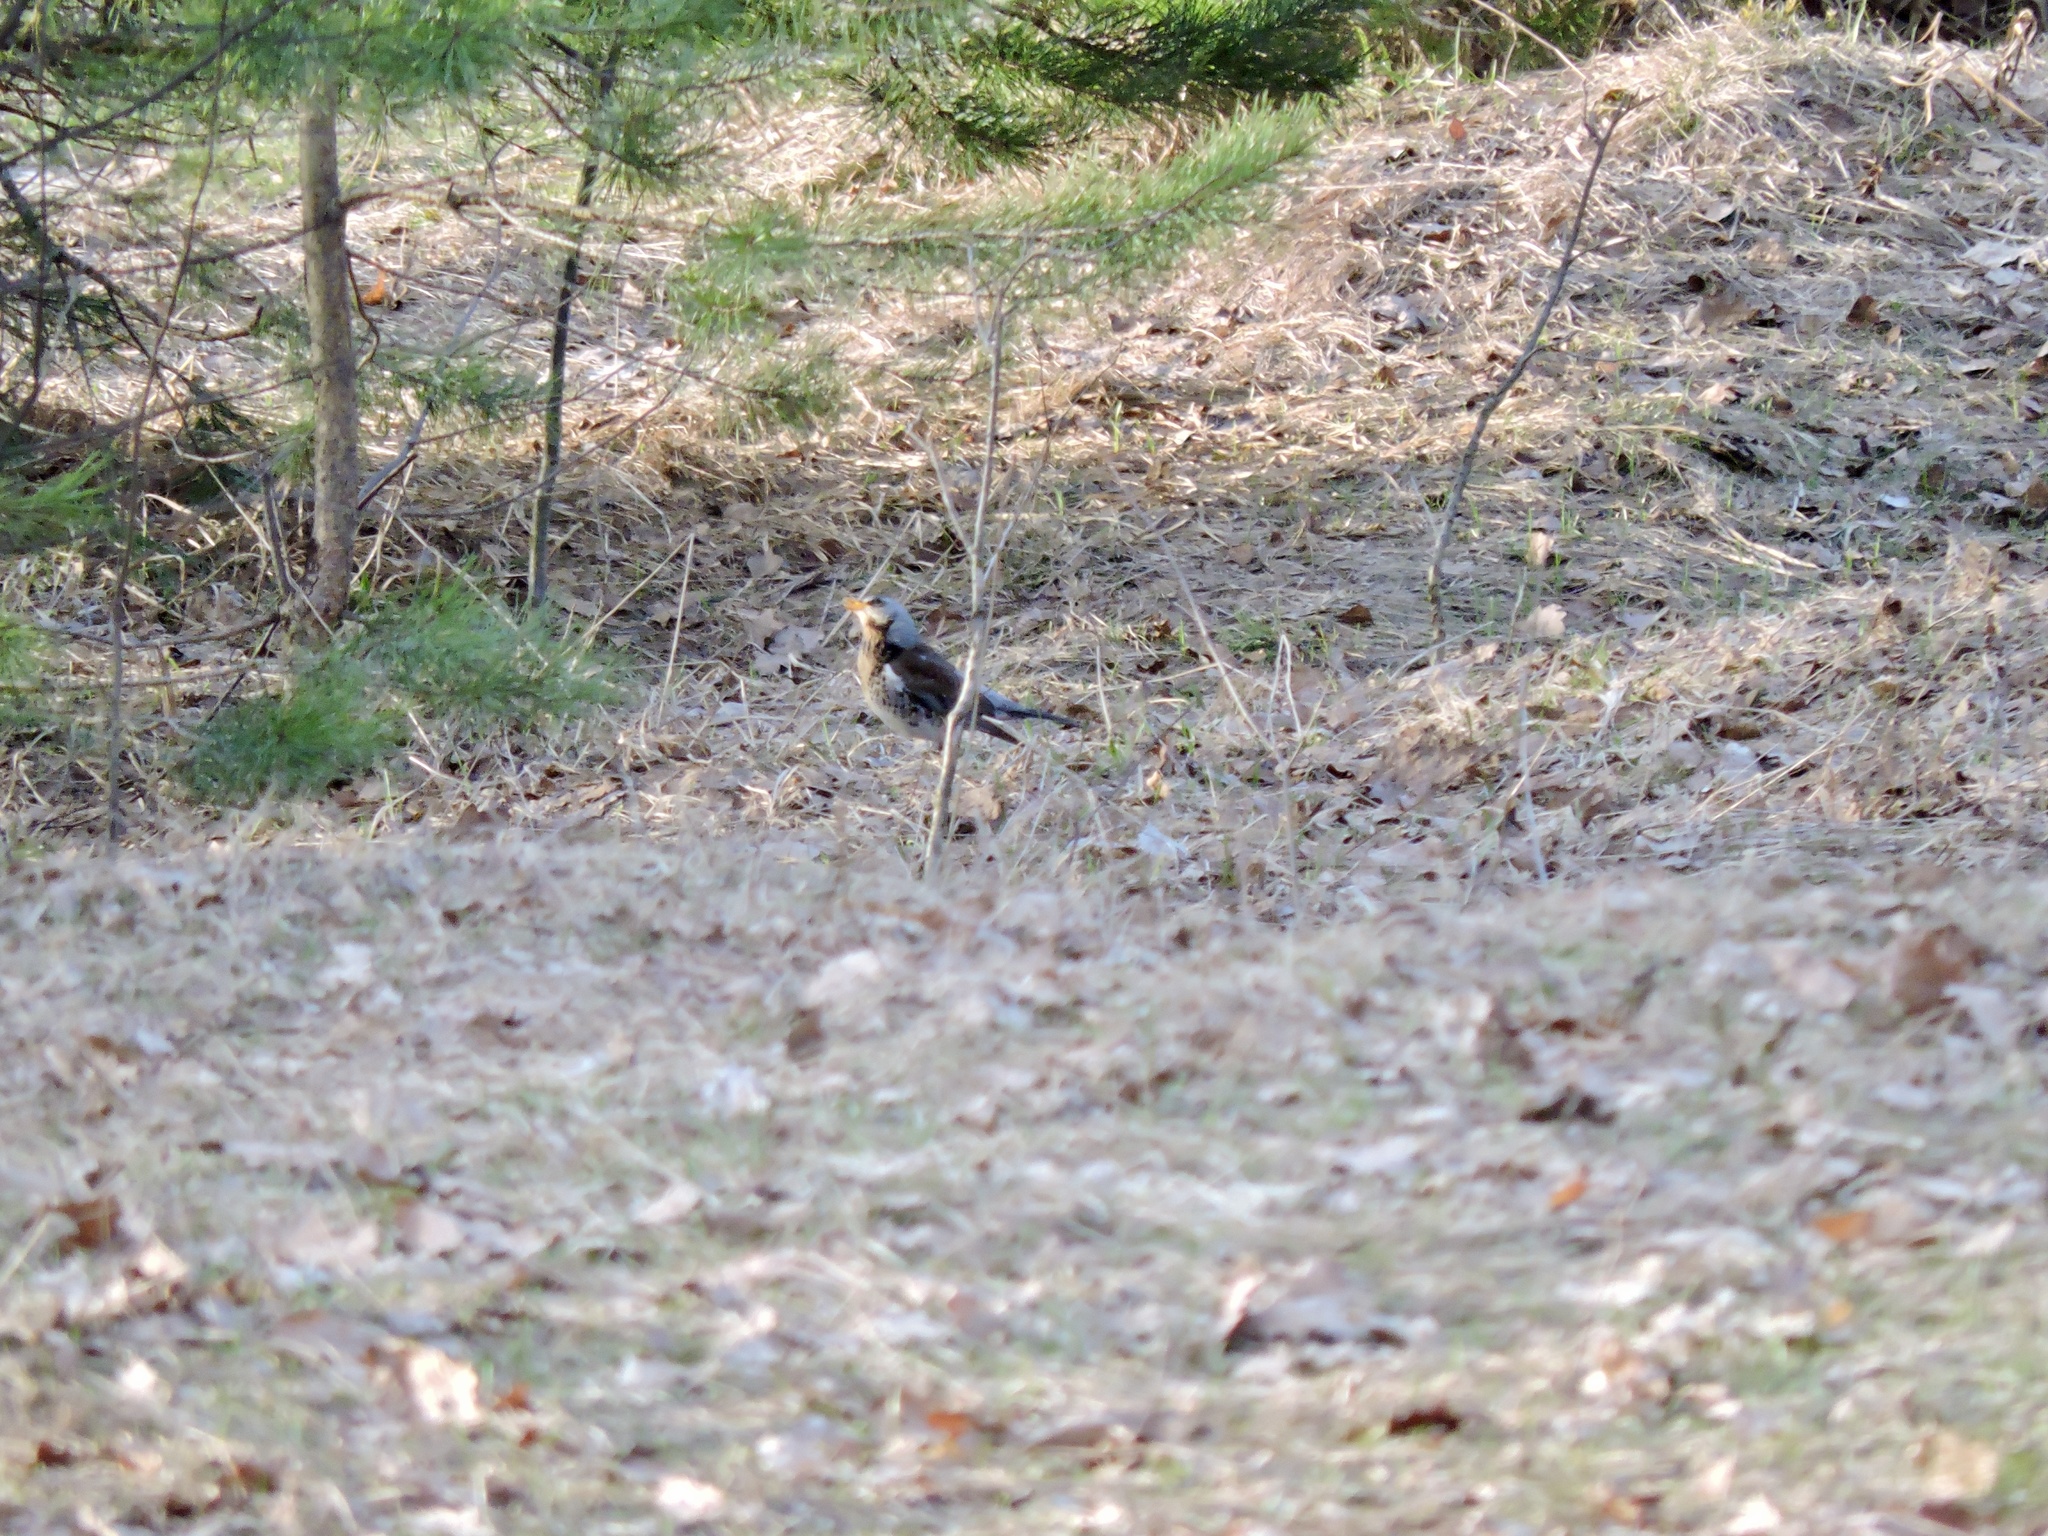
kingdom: Animalia
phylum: Chordata
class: Aves
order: Passeriformes
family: Turdidae
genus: Turdus
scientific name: Turdus pilaris
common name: Fieldfare
